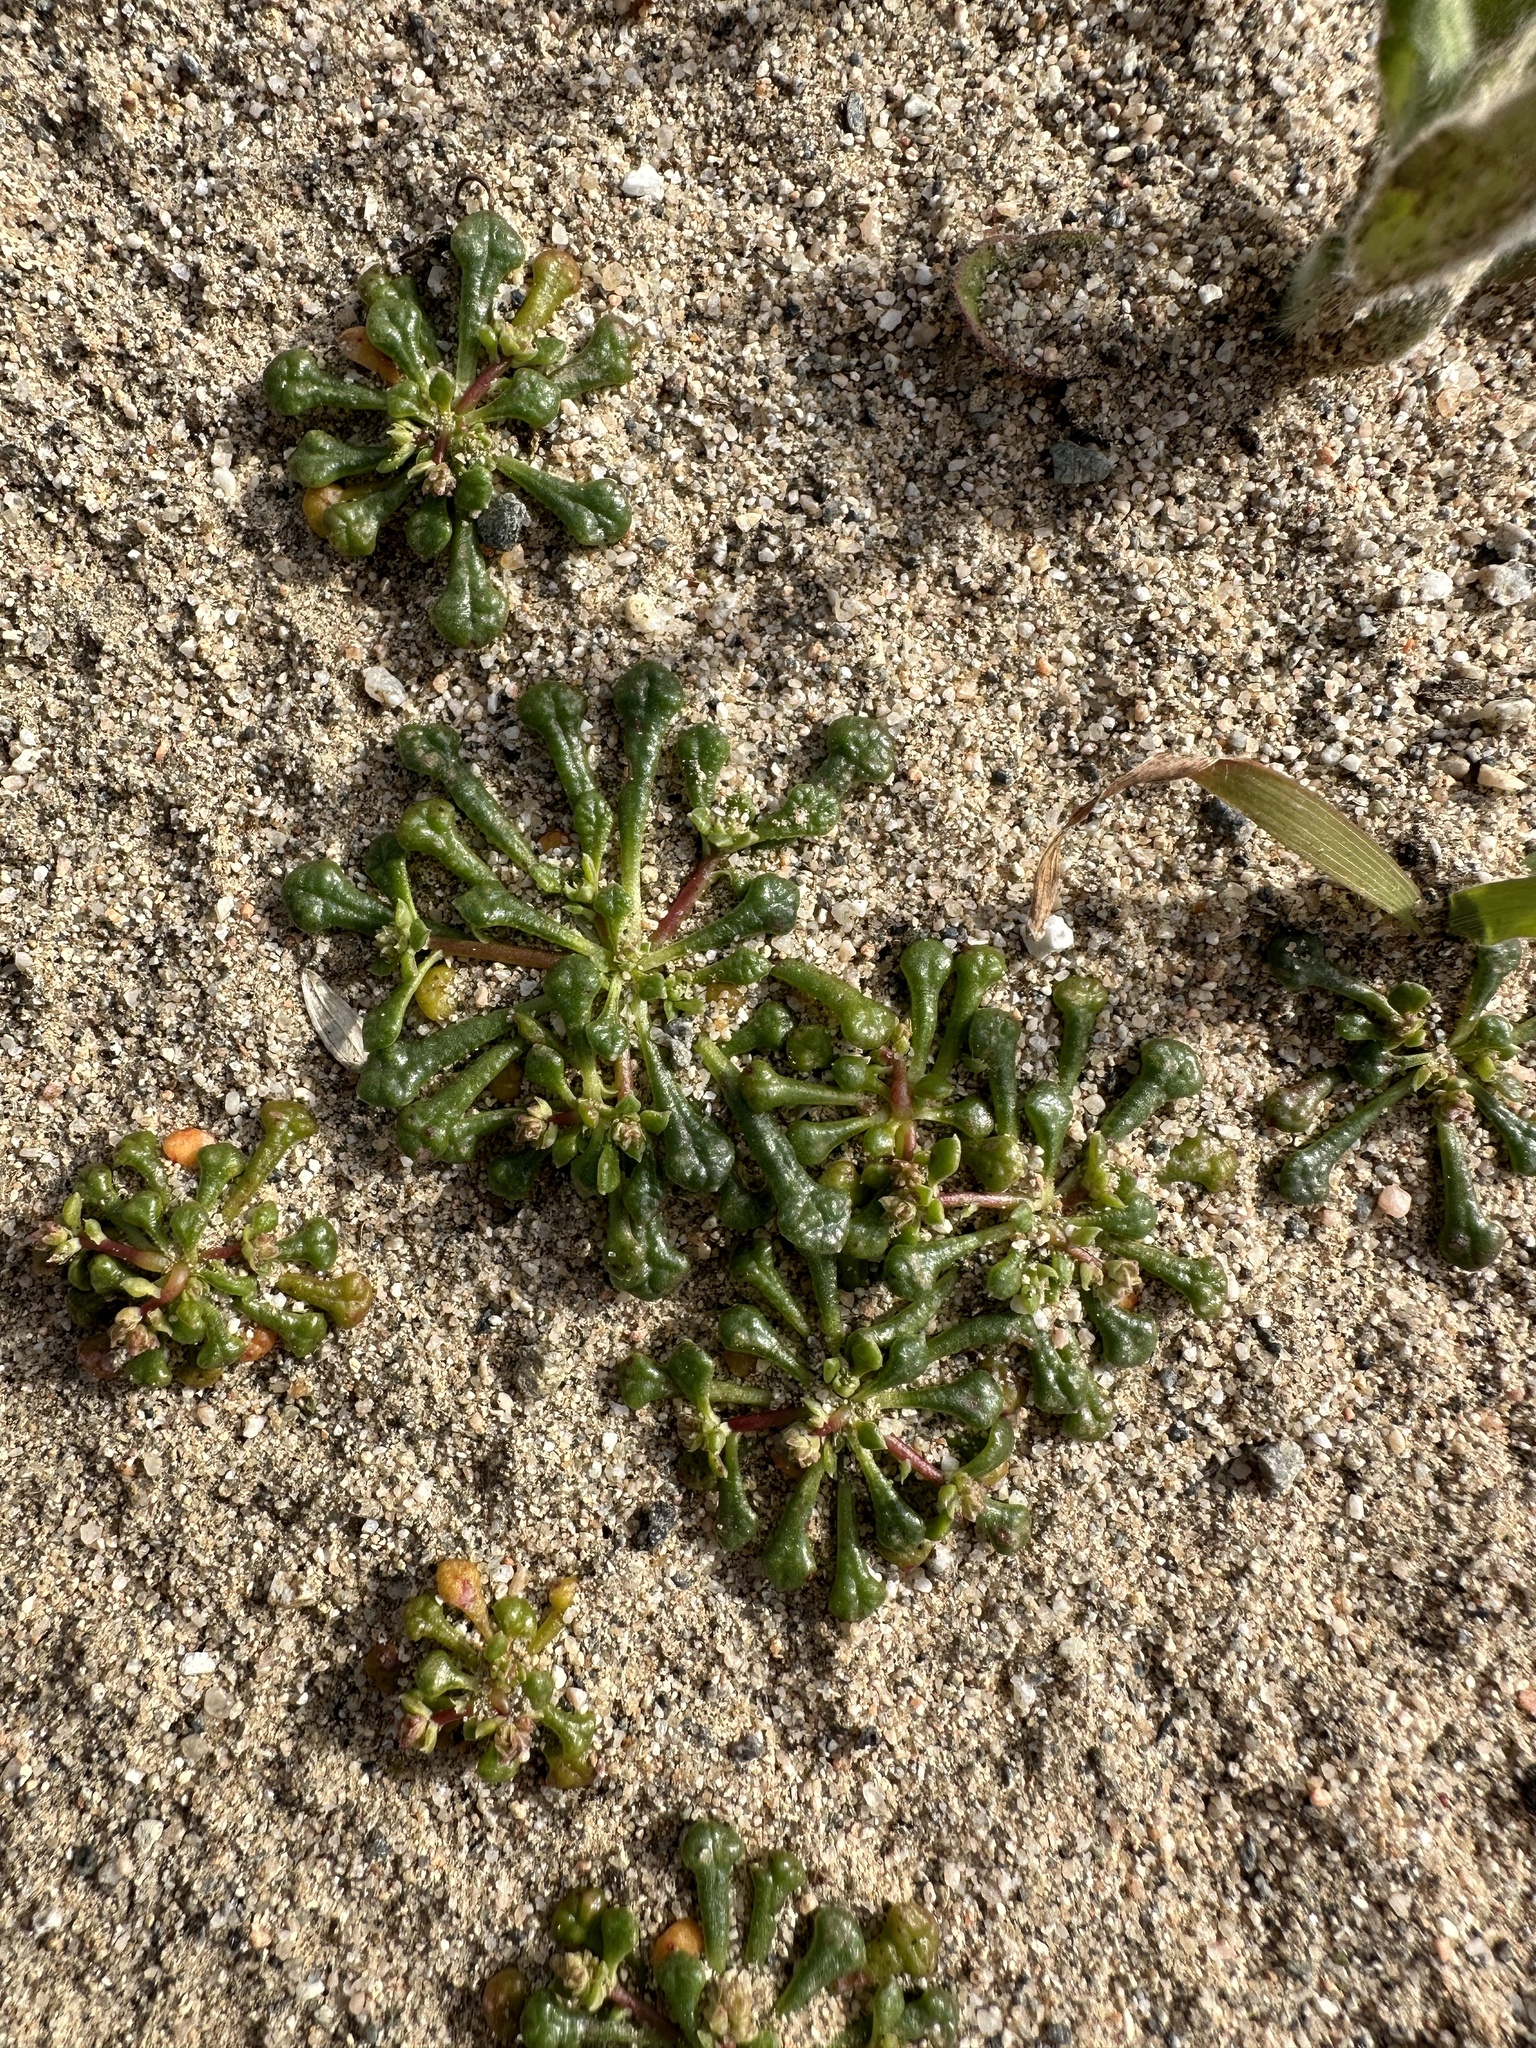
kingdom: Plantae
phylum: Tracheophyta
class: Magnoliopsida
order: Caryophyllales
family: Montiaceae
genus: Calyptridium
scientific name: Calyptridium monandrum
